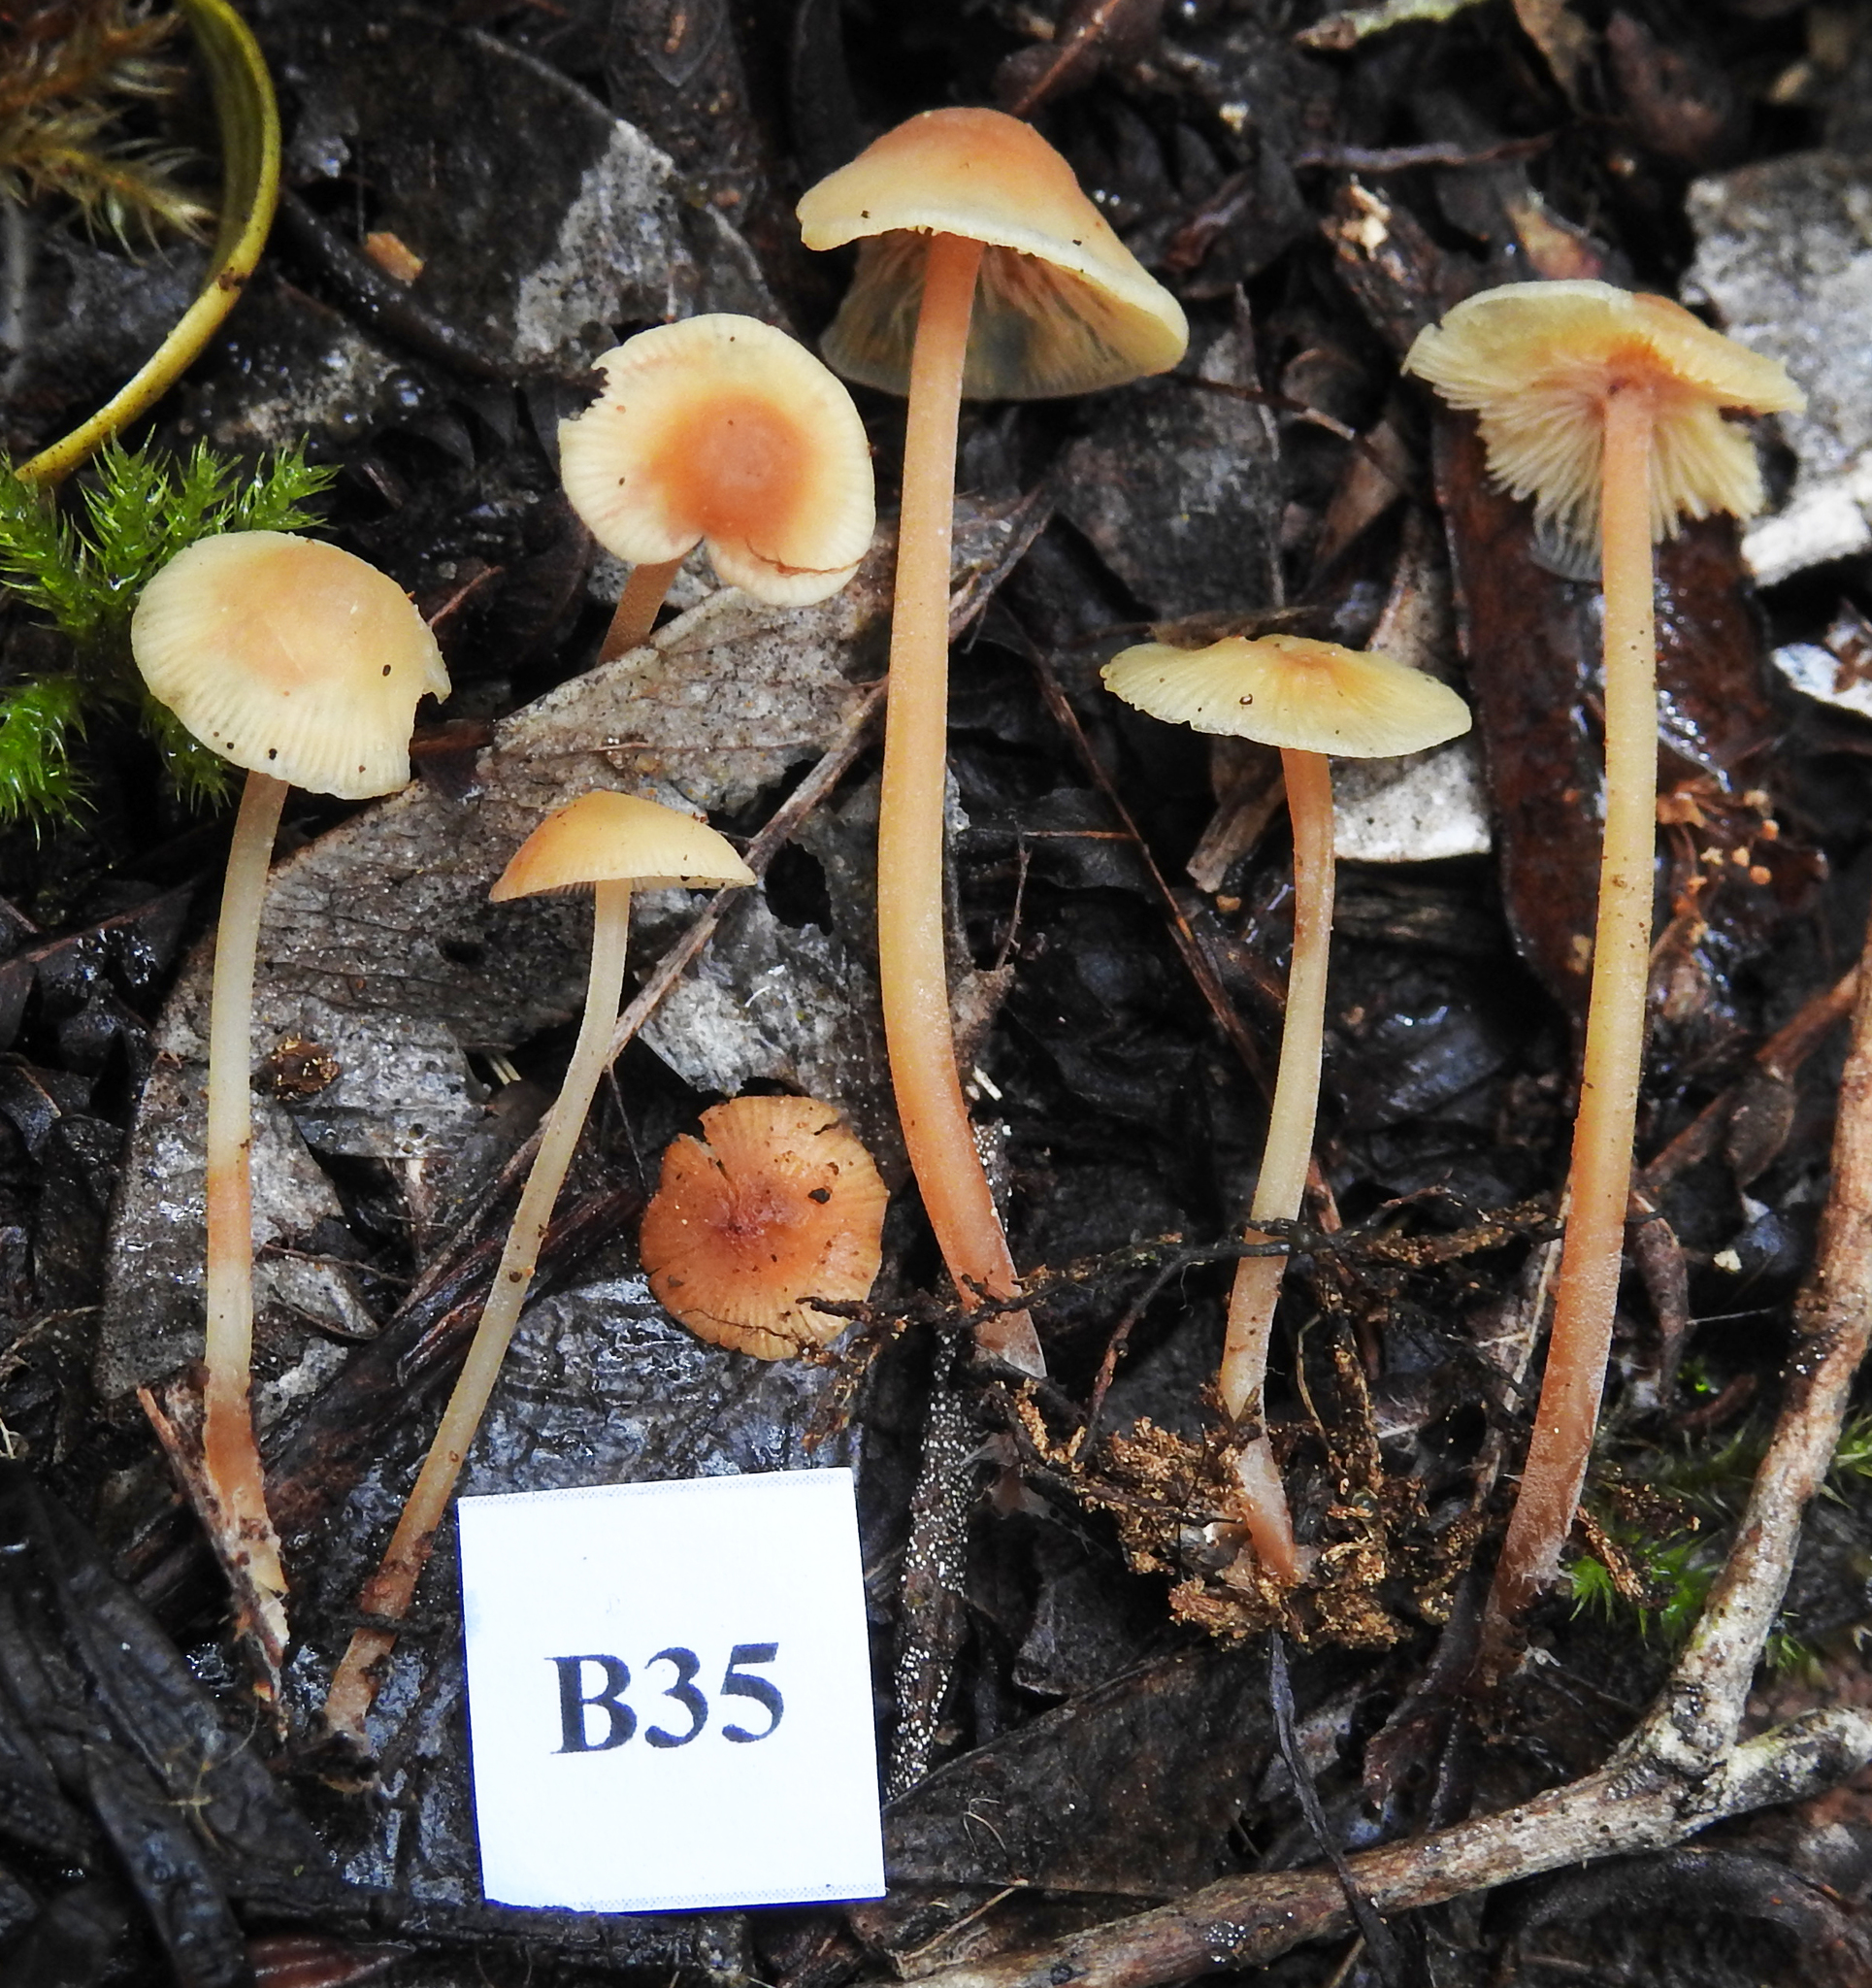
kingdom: Fungi
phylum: Basidiomycota
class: Agaricomycetes
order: Agaricales
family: Tricholomataceae
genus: Omphalina
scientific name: Omphalina wellingtonensis
